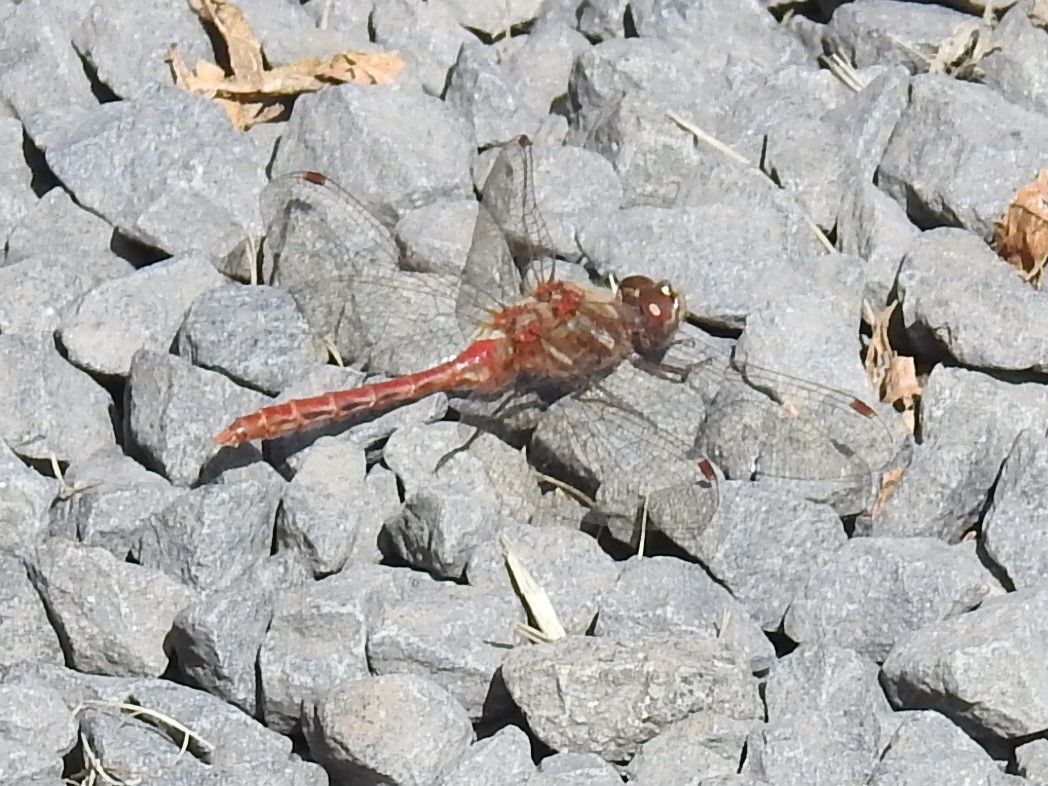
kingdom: Animalia
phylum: Arthropoda
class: Insecta
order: Odonata
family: Libellulidae
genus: Sympetrum
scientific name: Sympetrum pallipes
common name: Striped meadowhawk
